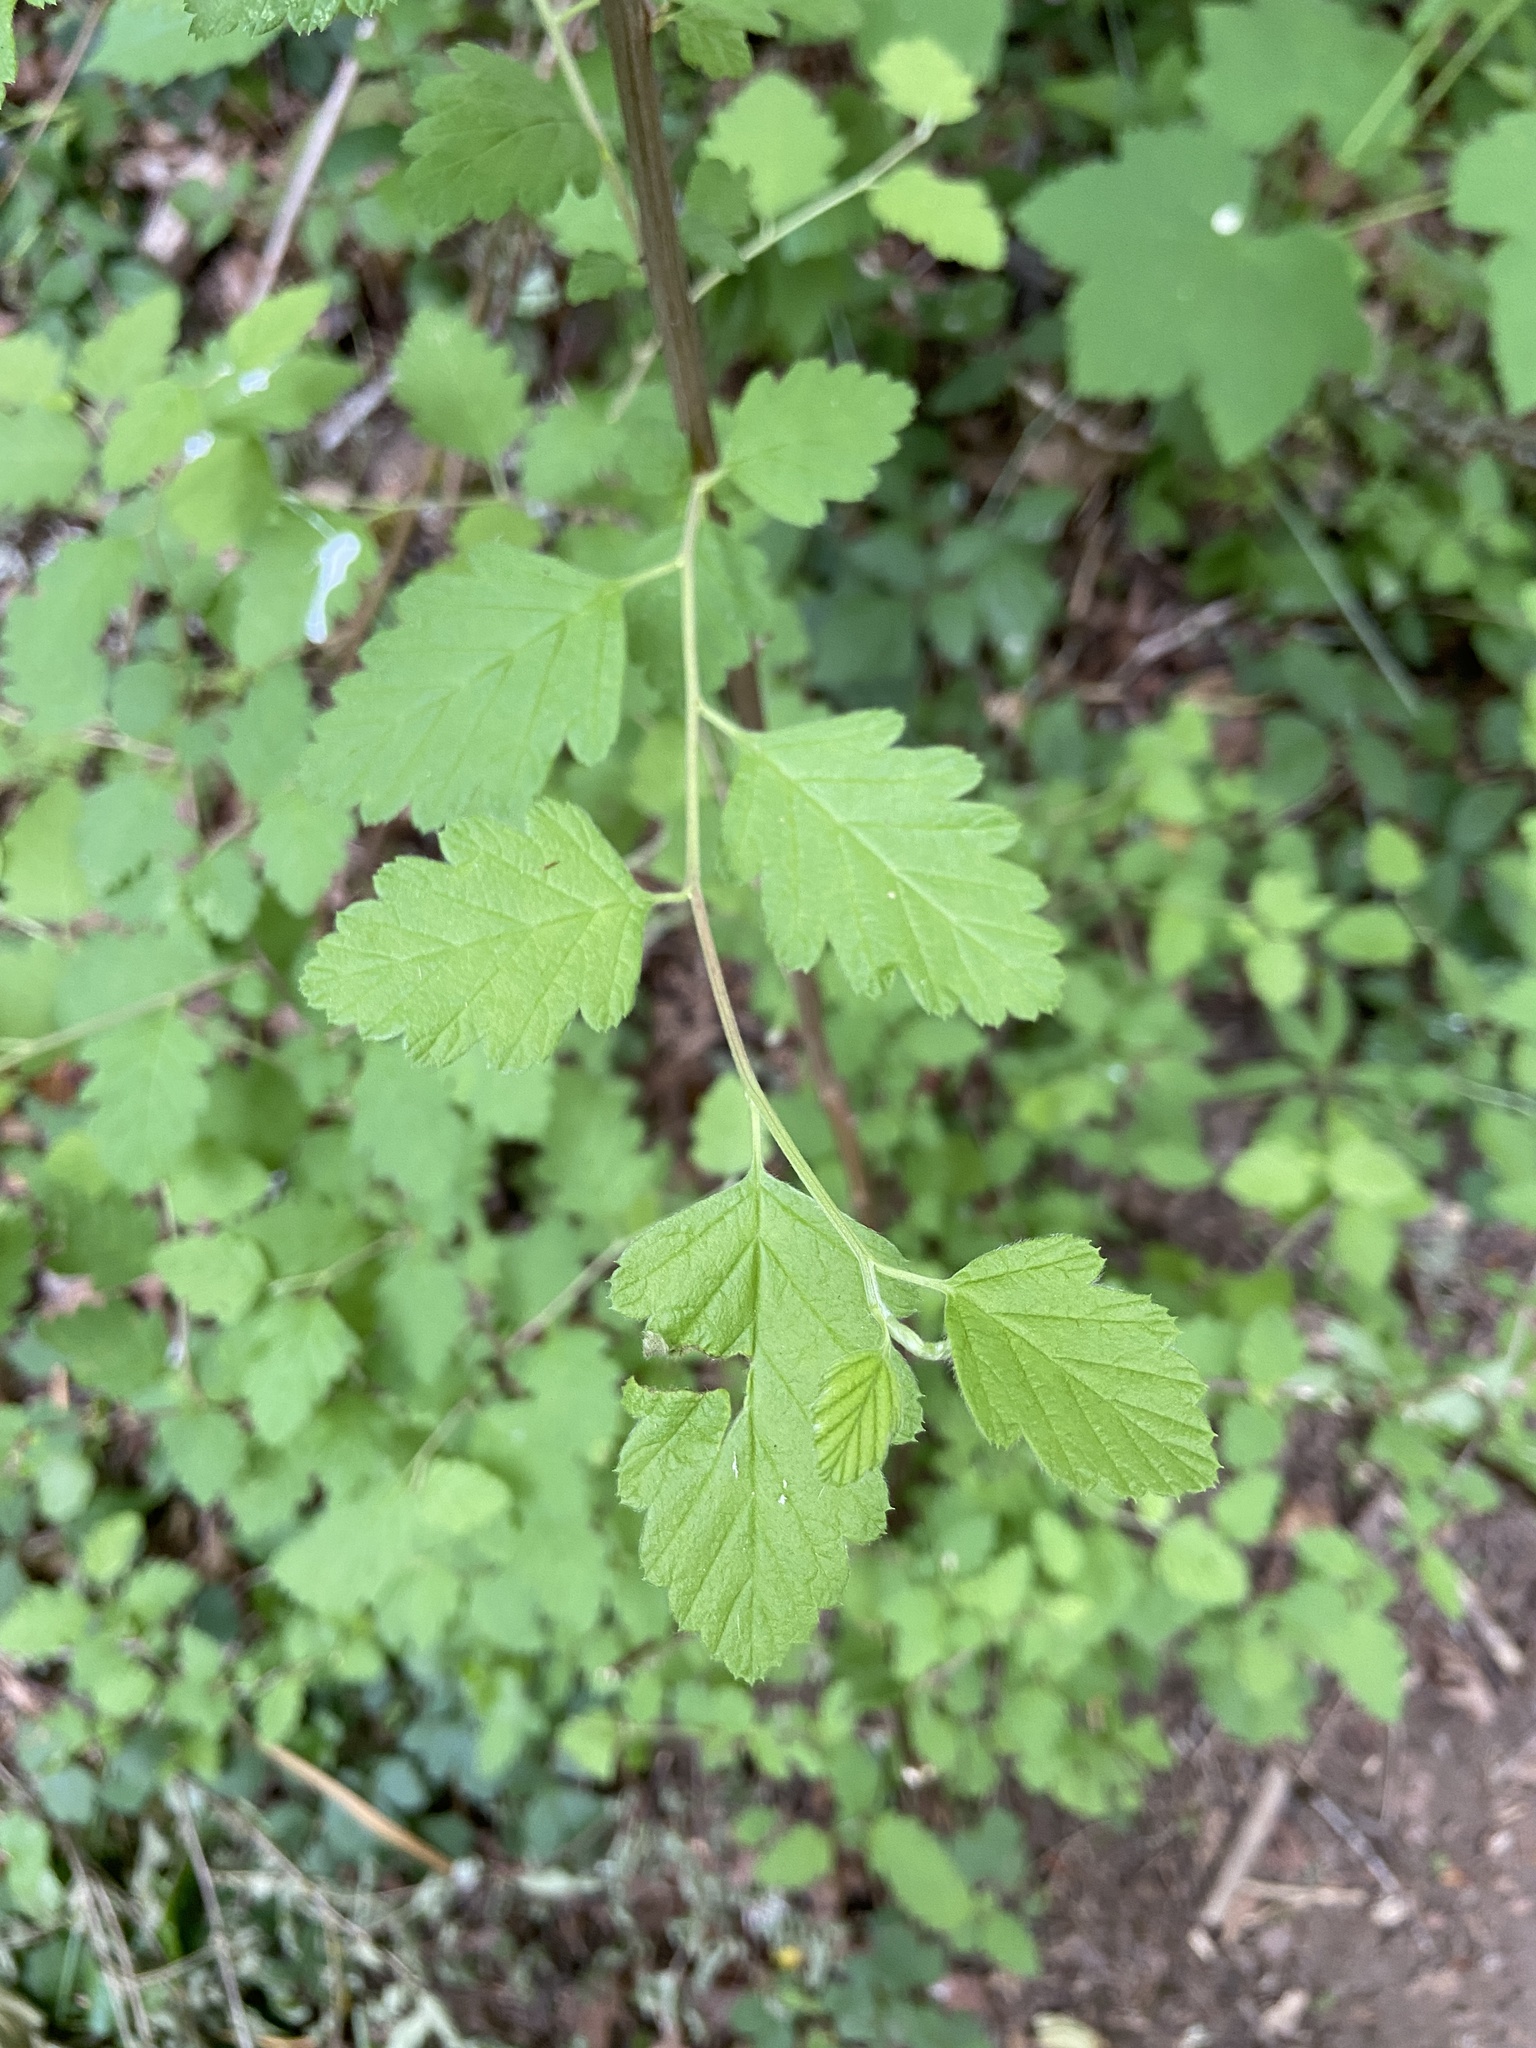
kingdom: Plantae
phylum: Tracheophyta
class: Magnoliopsida
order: Rosales
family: Rosaceae
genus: Holodiscus
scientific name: Holodiscus discolor
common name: Oceanspray
